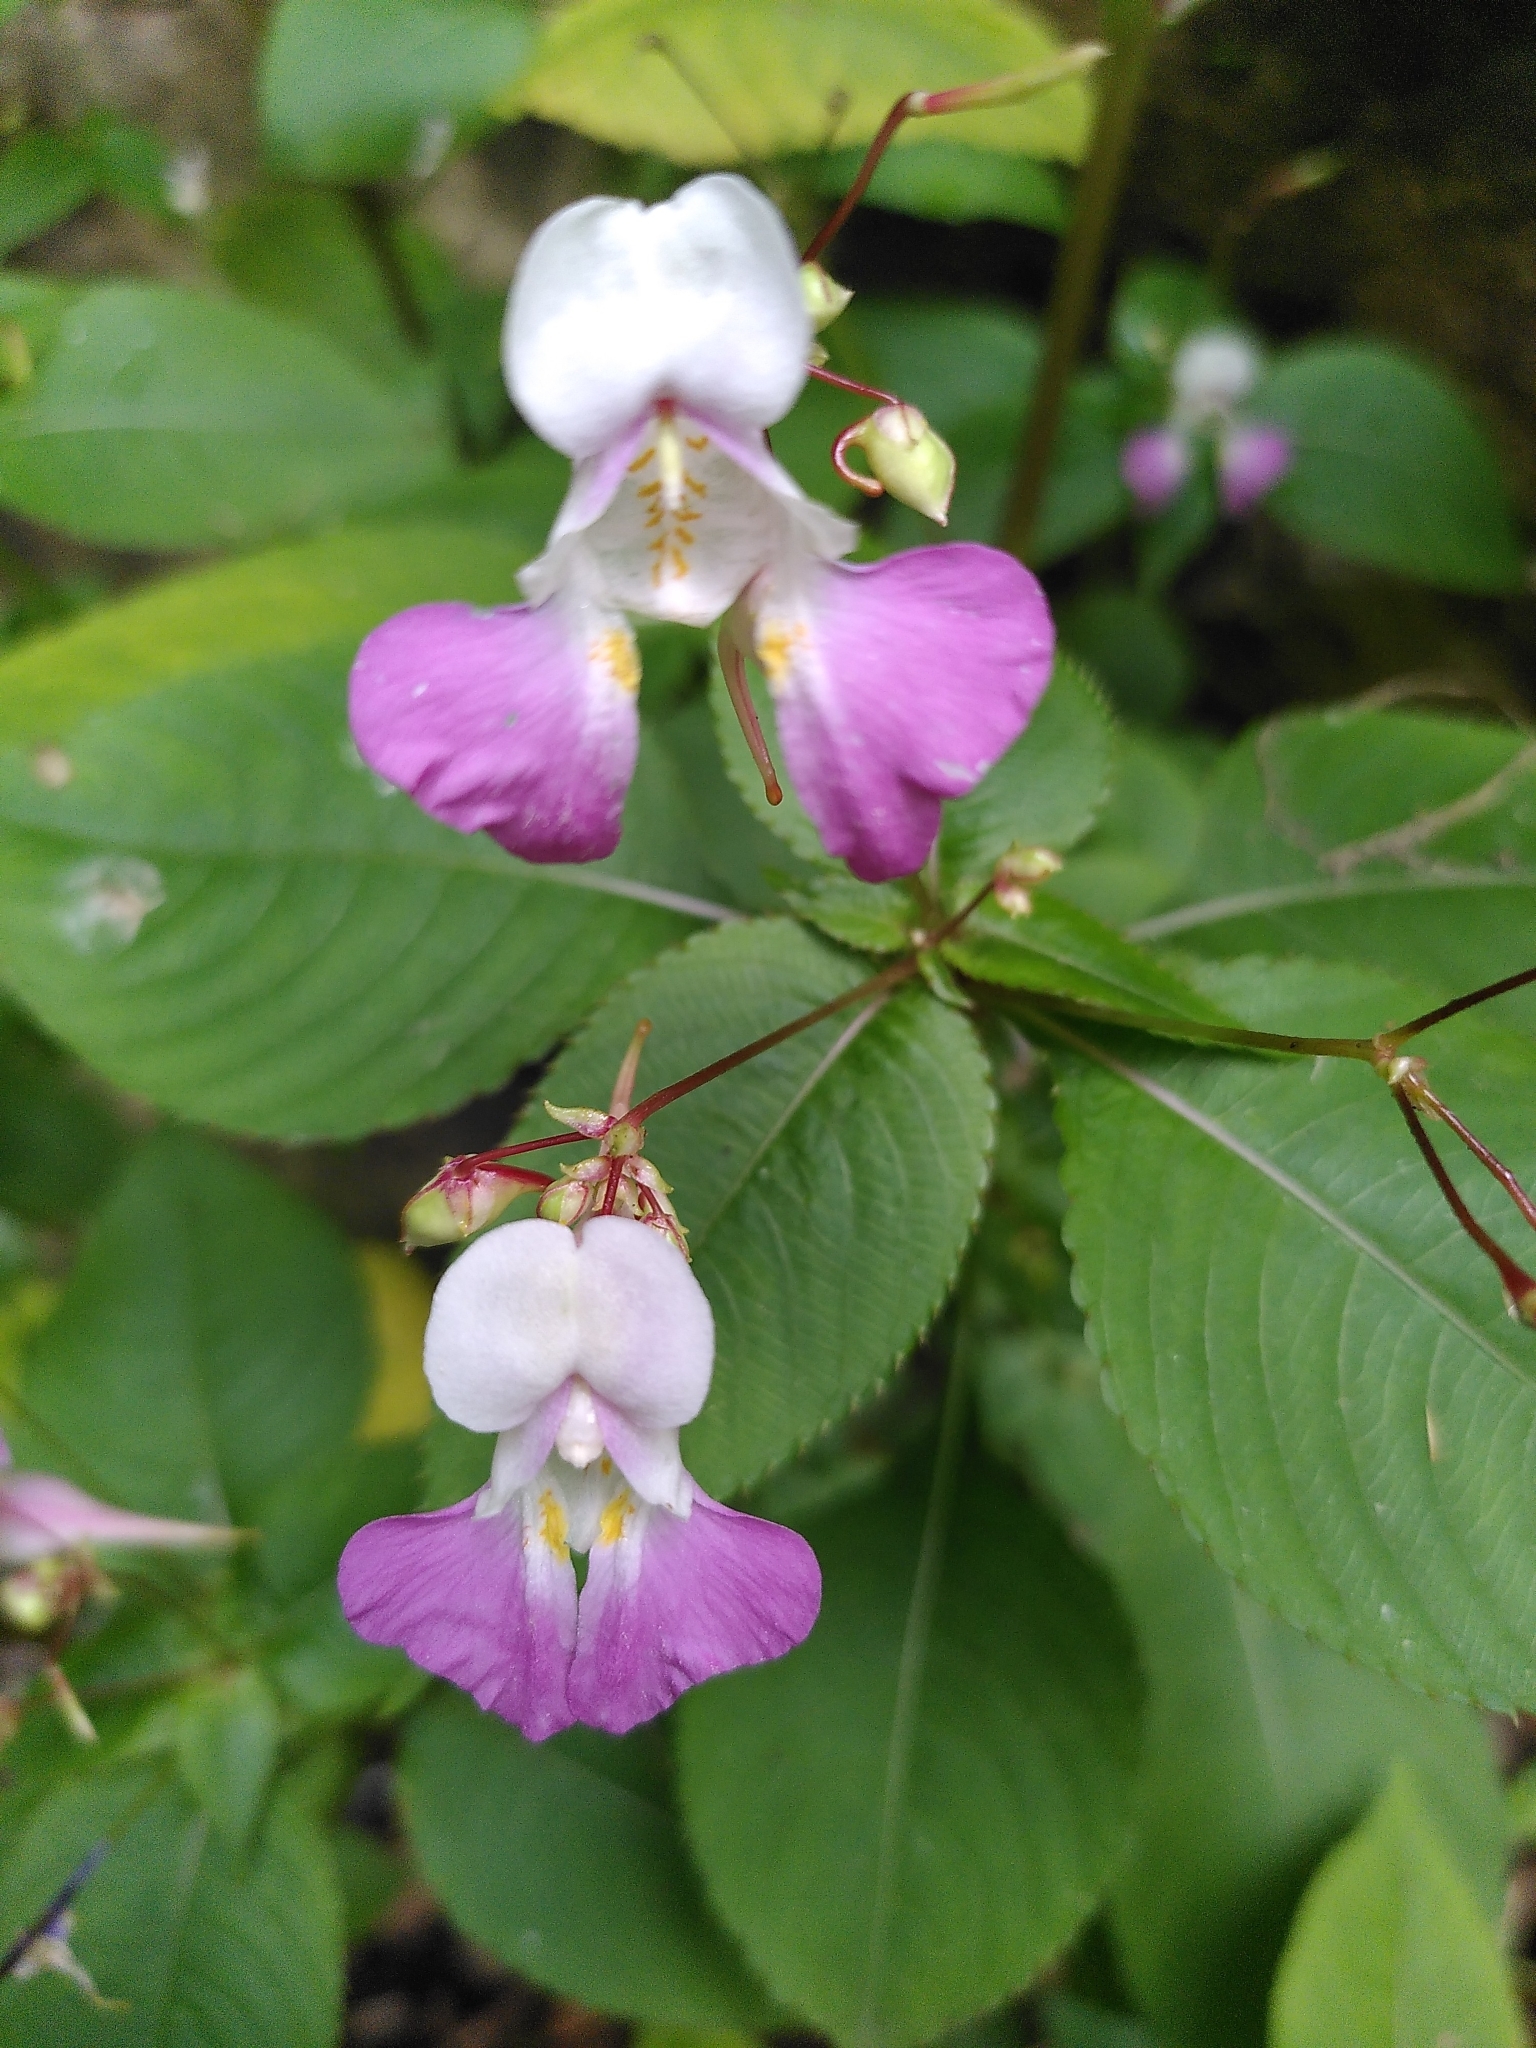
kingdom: Plantae
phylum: Tracheophyta
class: Magnoliopsida
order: Ericales
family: Balsaminaceae
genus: Impatiens
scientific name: Impatiens balfourii
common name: Balfour's touch-me-not
